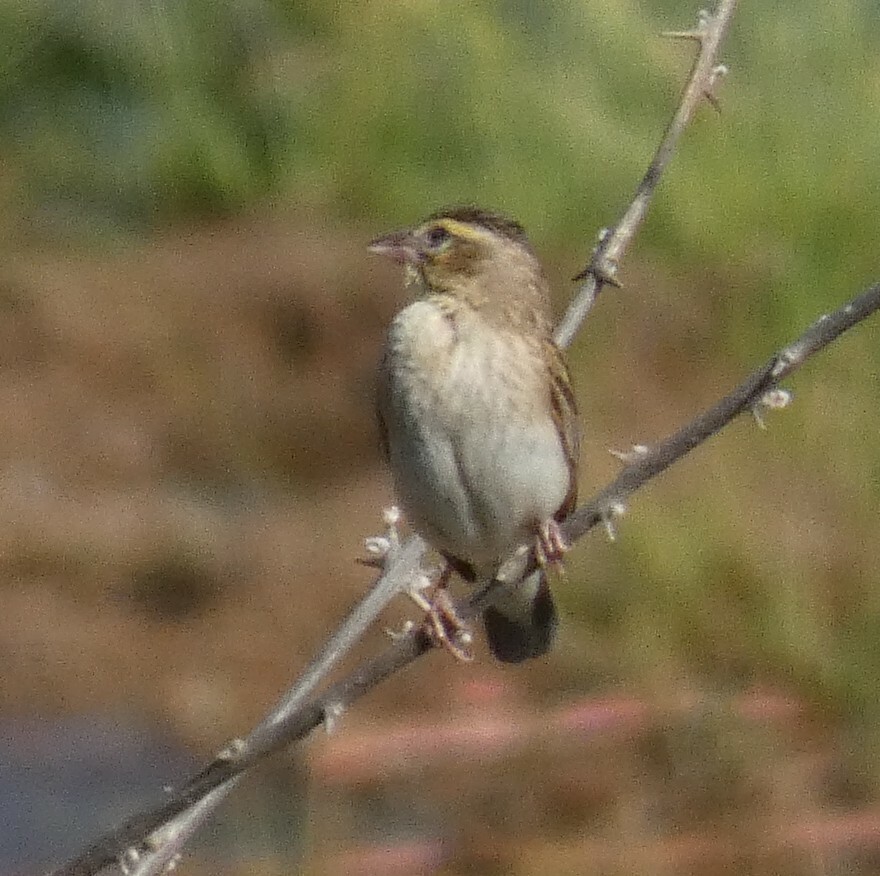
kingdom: Animalia
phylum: Chordata
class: Aves
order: Passeriformes
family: Ploceidae
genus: Euplectes
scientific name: Euplectes albonotatus
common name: White-winged widowbird
